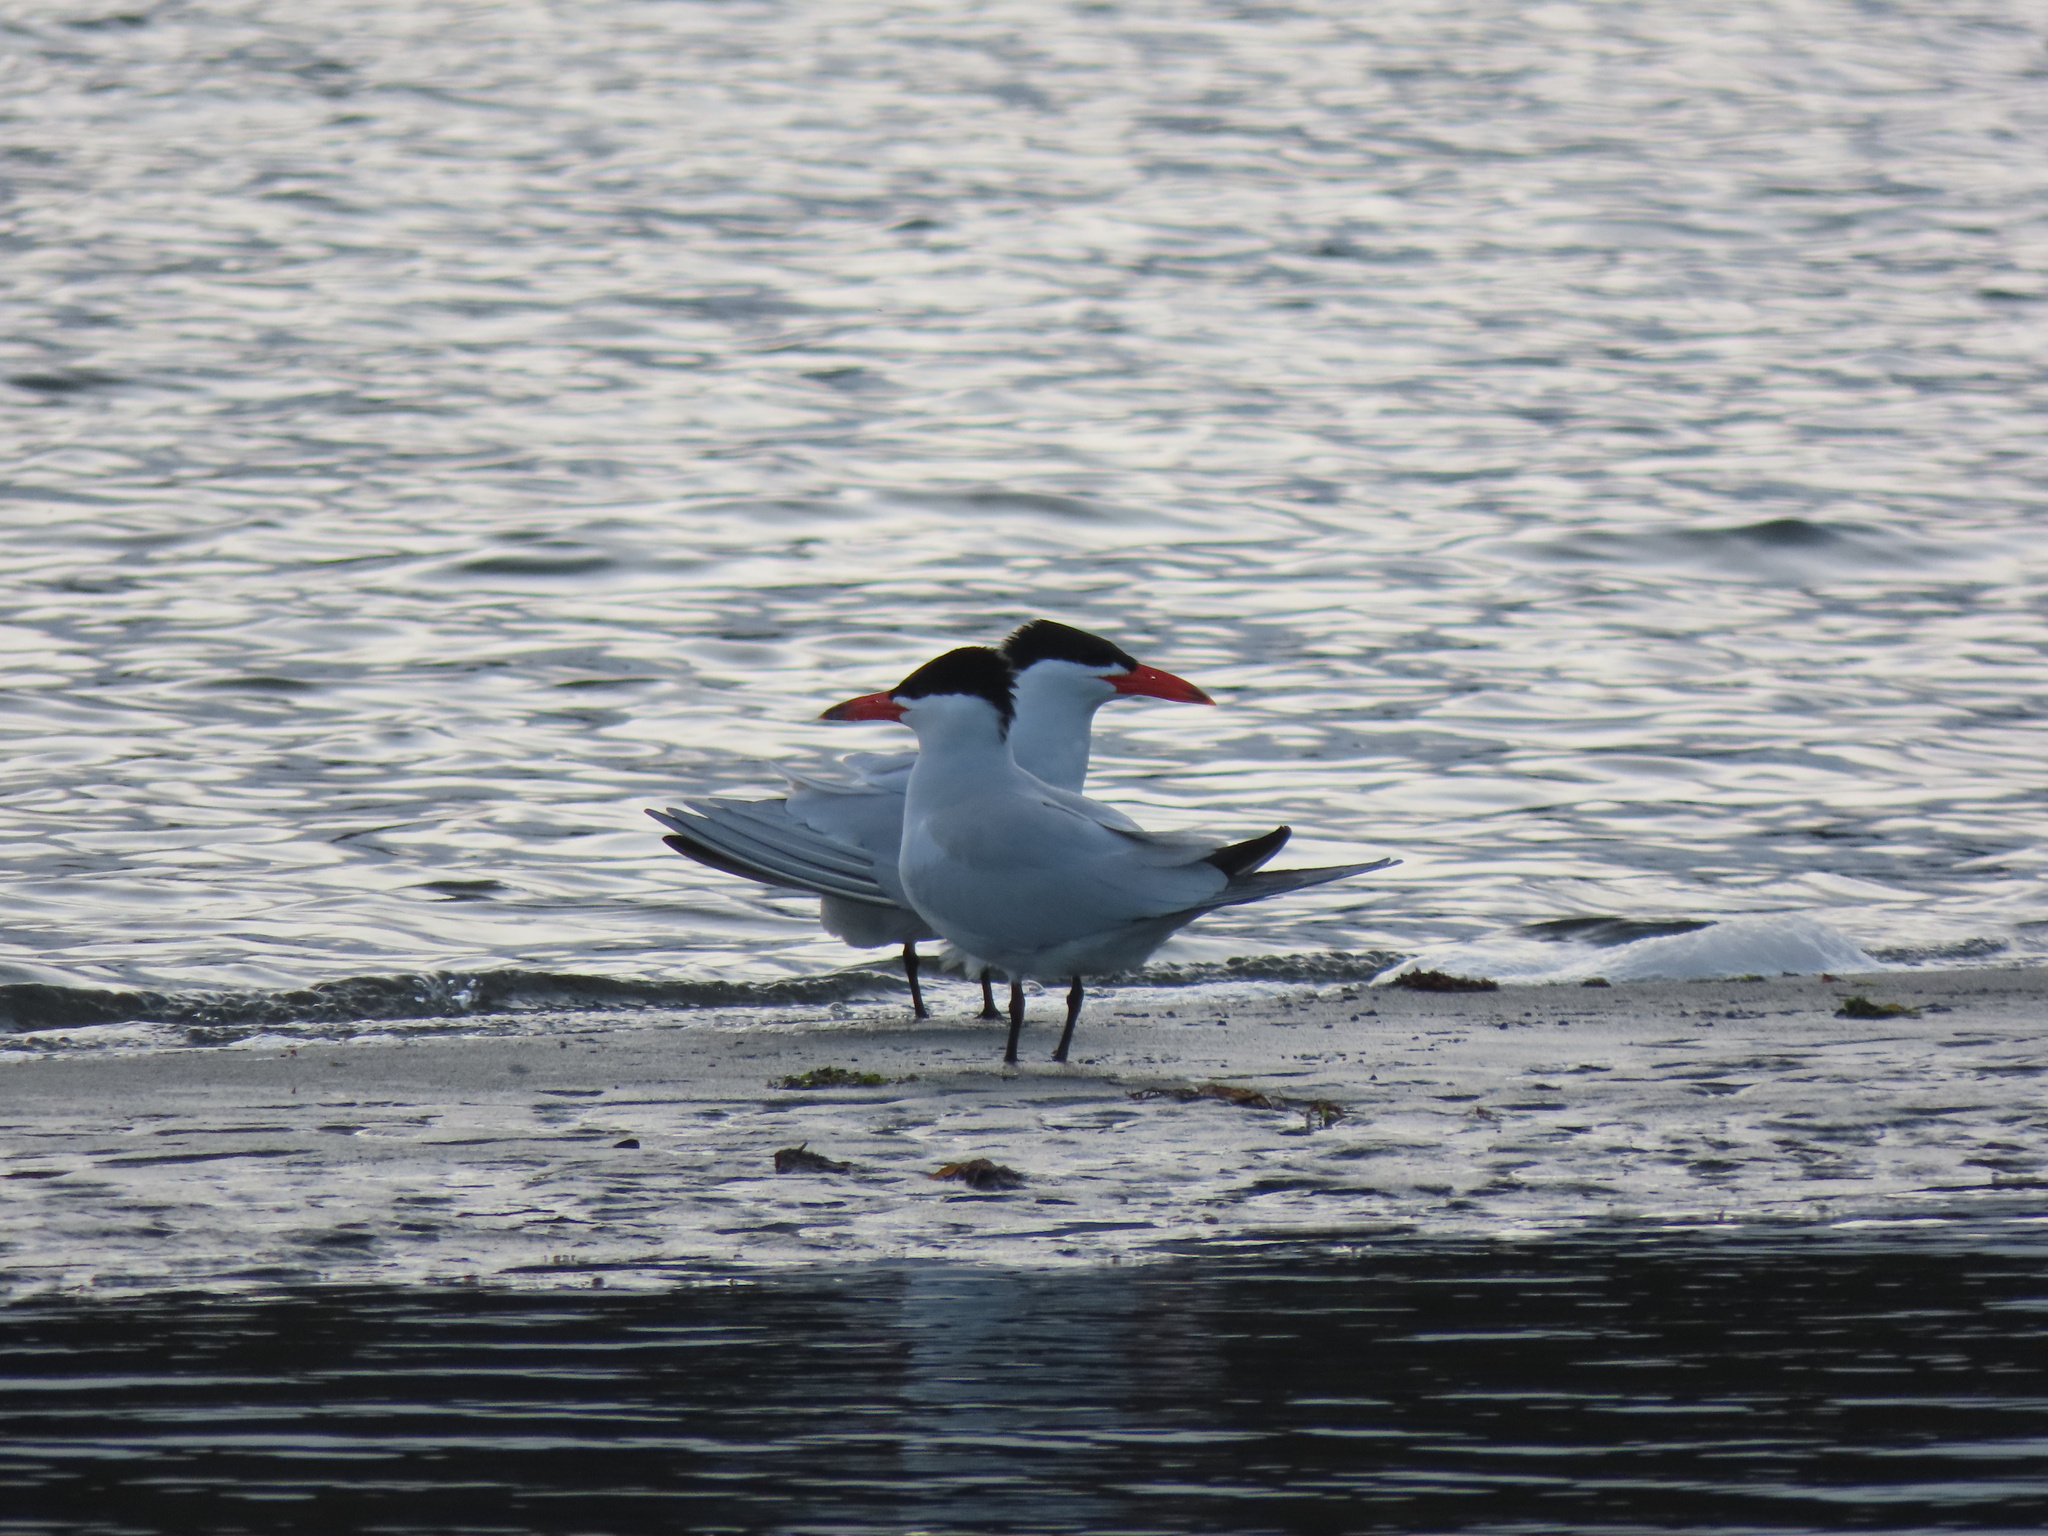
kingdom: Animalia
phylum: Chordata
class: Aves
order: Charadriiformes
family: Laridae
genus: Hydroprogne
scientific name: Hydroprogne caspia
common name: Caspian tern
